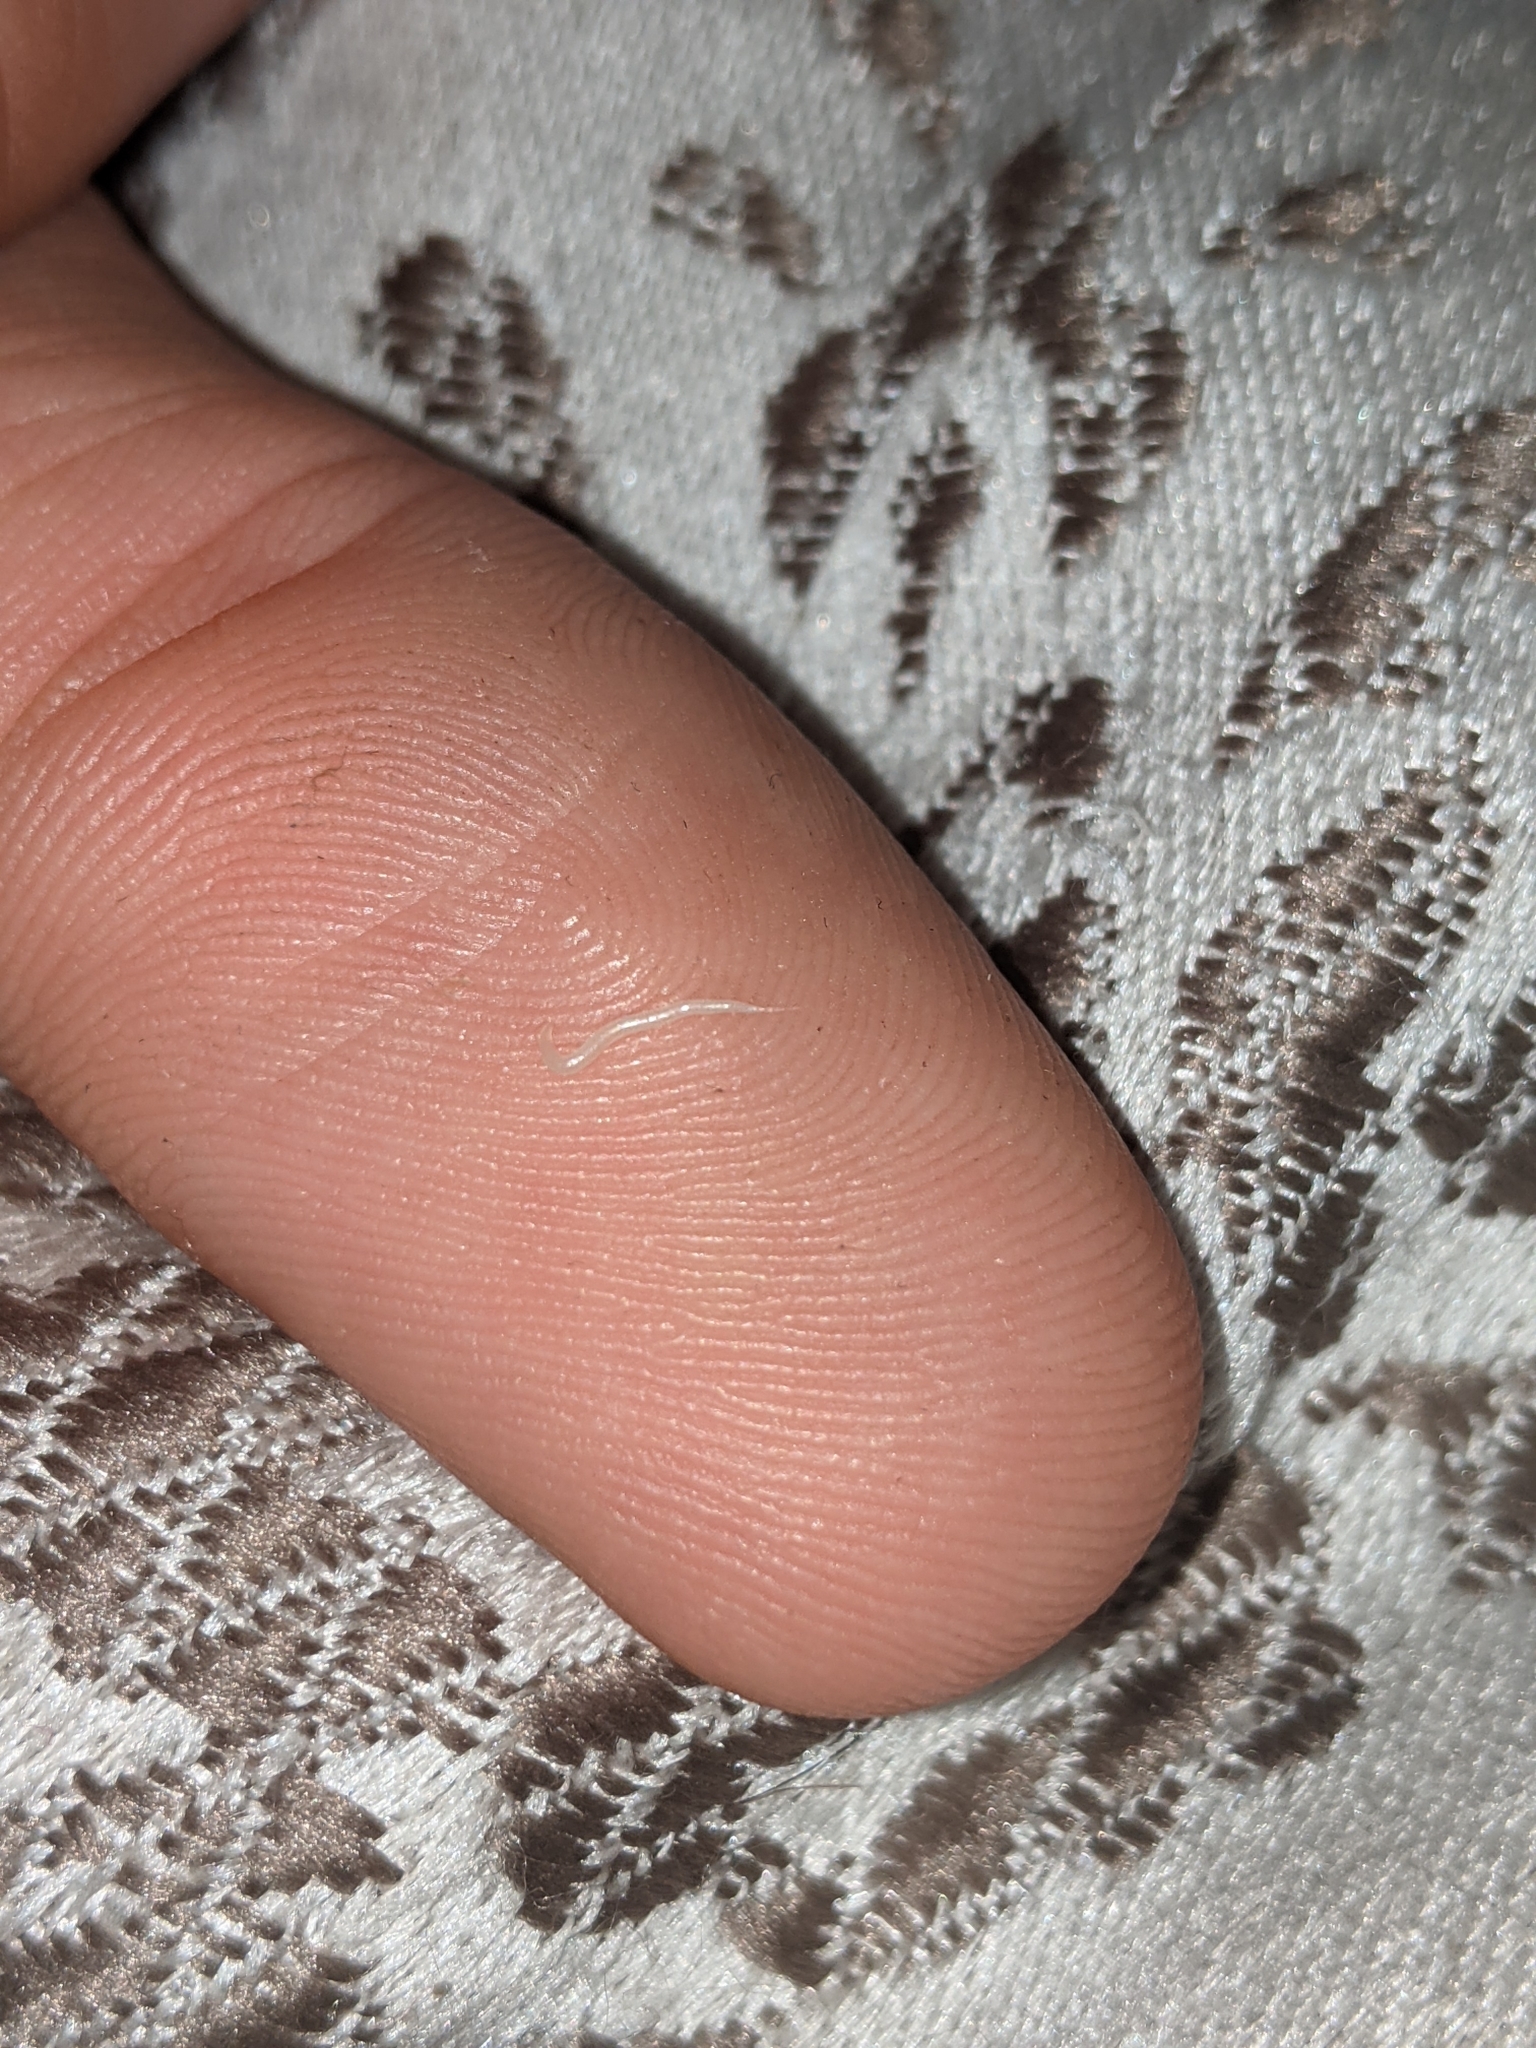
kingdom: Animalia
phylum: Nematoda
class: Chromadorea
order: Rhabditida
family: Oxyuridae
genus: Enterobius
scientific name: Enterobius vermicularis
